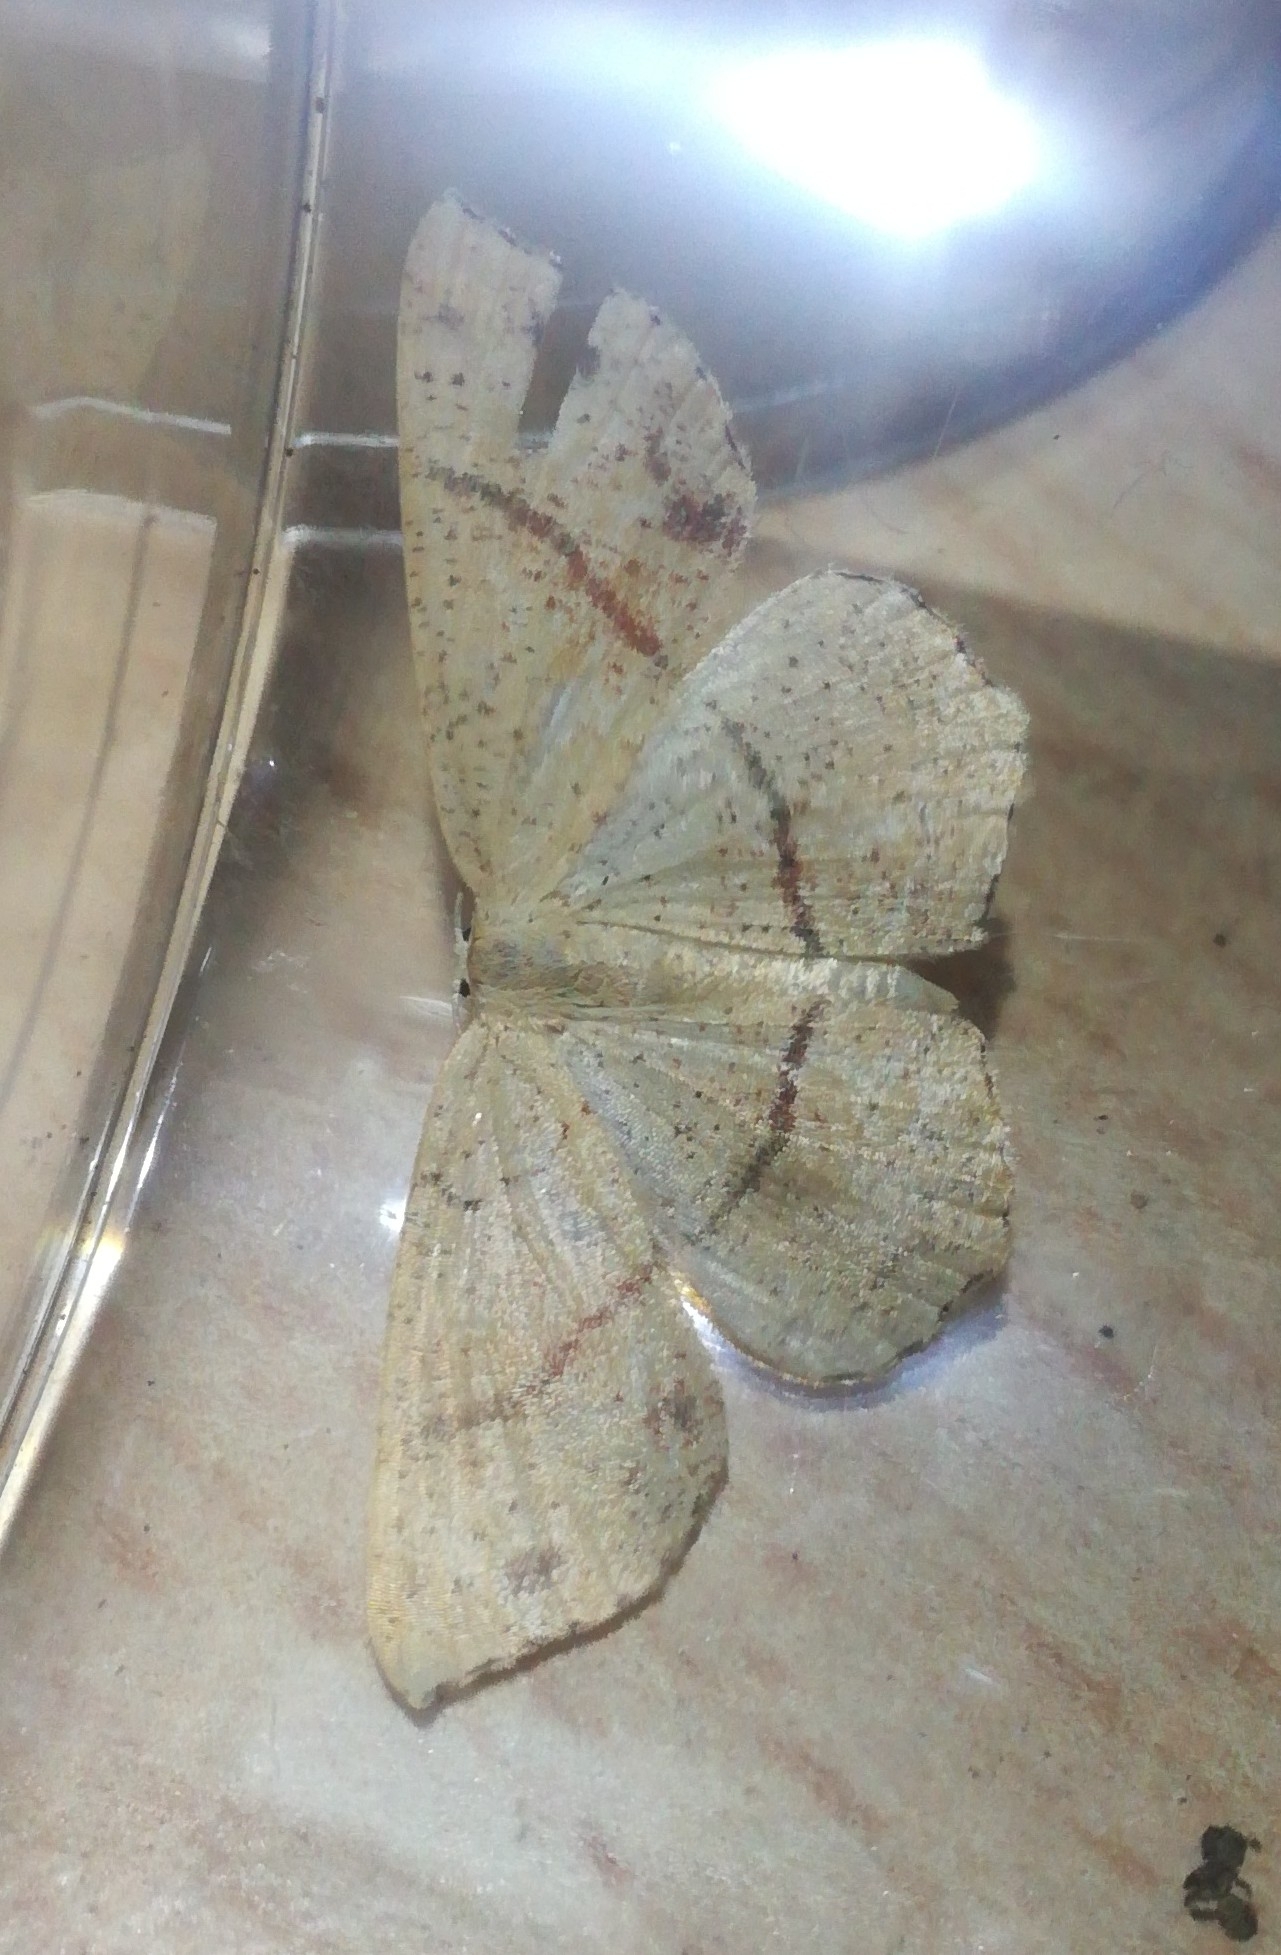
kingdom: Animalia
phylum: Arthropoda
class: Insecta
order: Lepidoptera
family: Geometridae
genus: Cyclophora
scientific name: Cyclophora punctaria
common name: Maiden's blush
